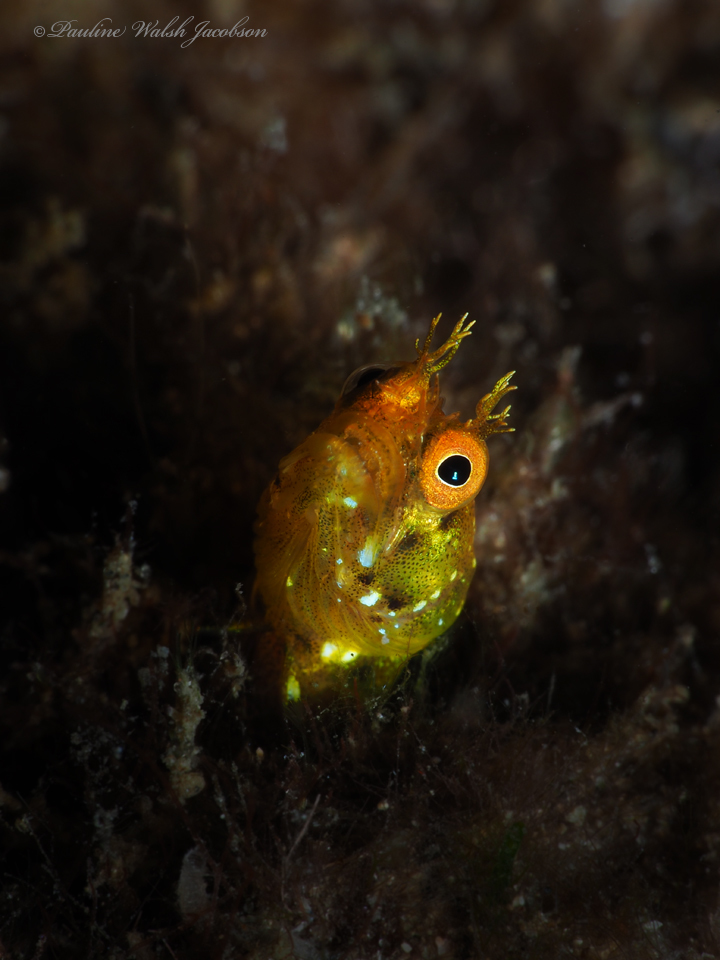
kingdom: Animalia
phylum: Chordata
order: Perciformes
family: Chaenopsidae
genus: Acanthemblemaria
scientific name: Acanthemblemaria aspera
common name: Roughhead blenny
